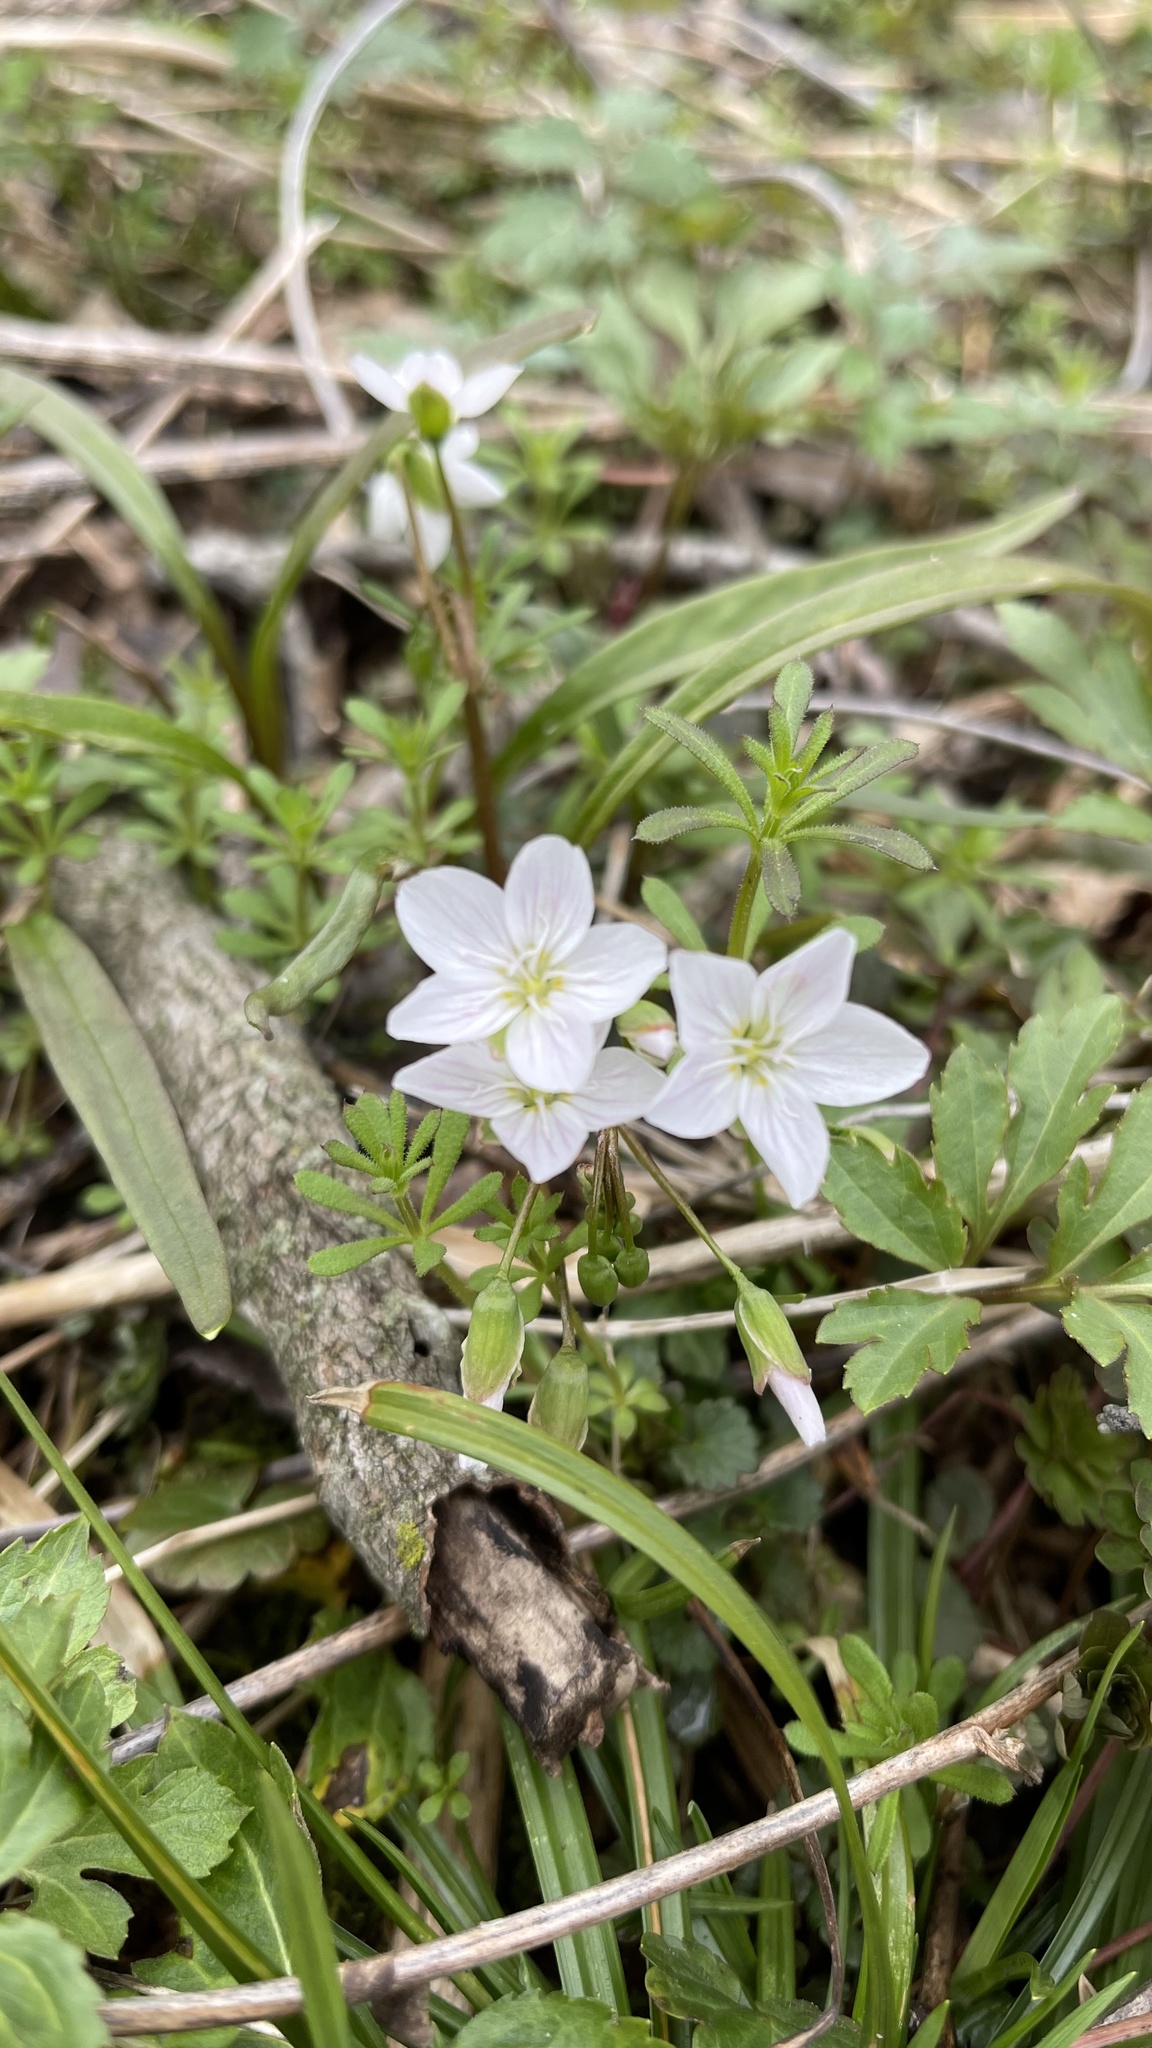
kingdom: Plantae
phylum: Tracheophyta
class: Magnoliopsida
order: Caryophyllales
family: Montiaceae
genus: Claytonia
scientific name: Claytonia virginica
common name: Virginia springbeauty
